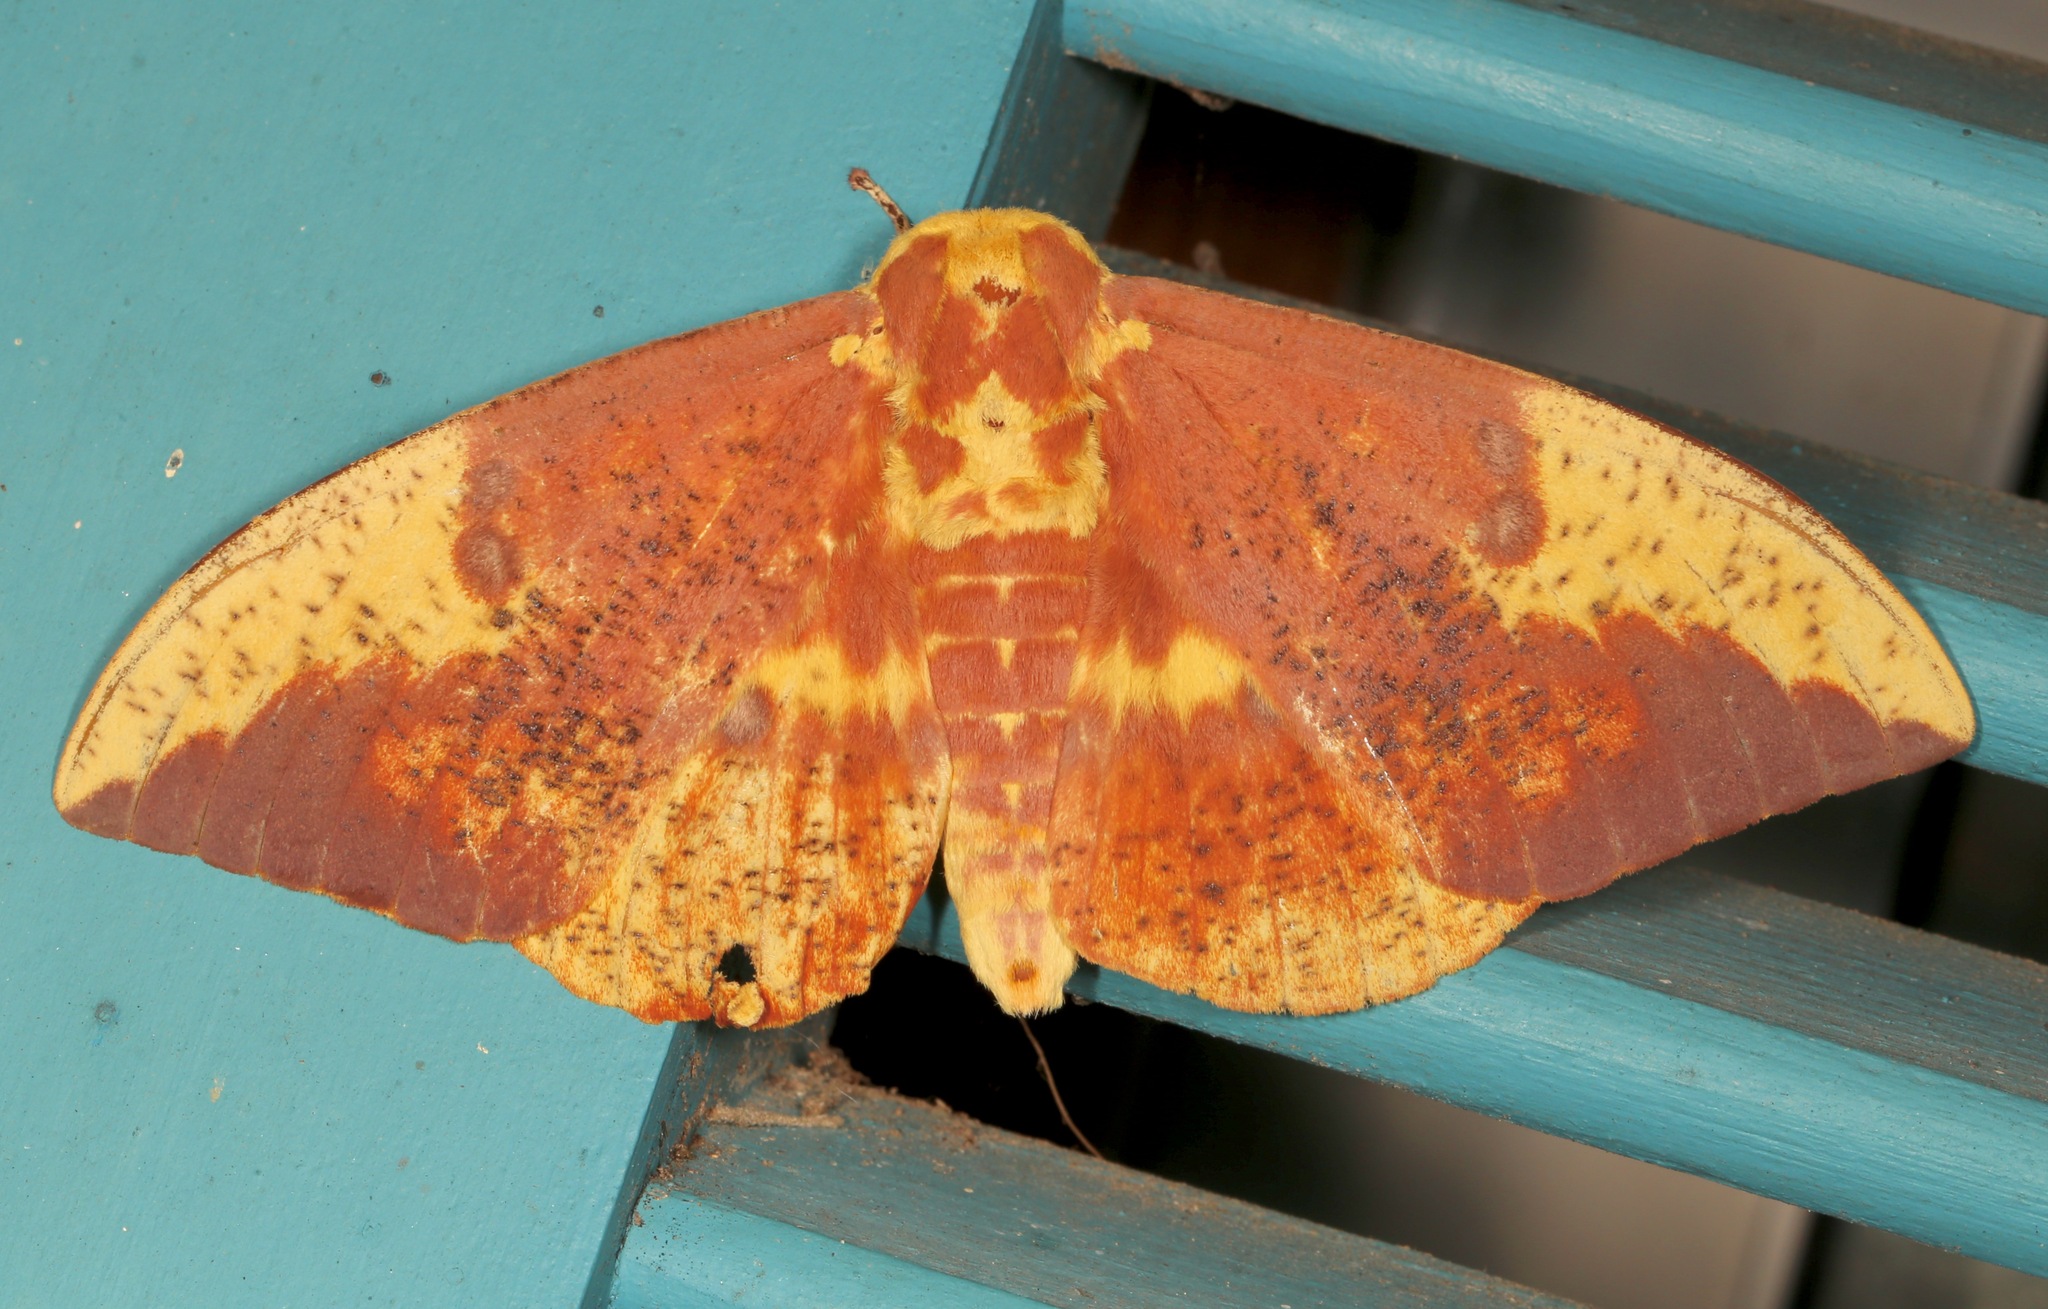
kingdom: Animalia
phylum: Arthropoda
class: Insecta
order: Lepidoptera
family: Saturniidae
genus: Eacles
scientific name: Eacles imperialis
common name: Imperial moth
